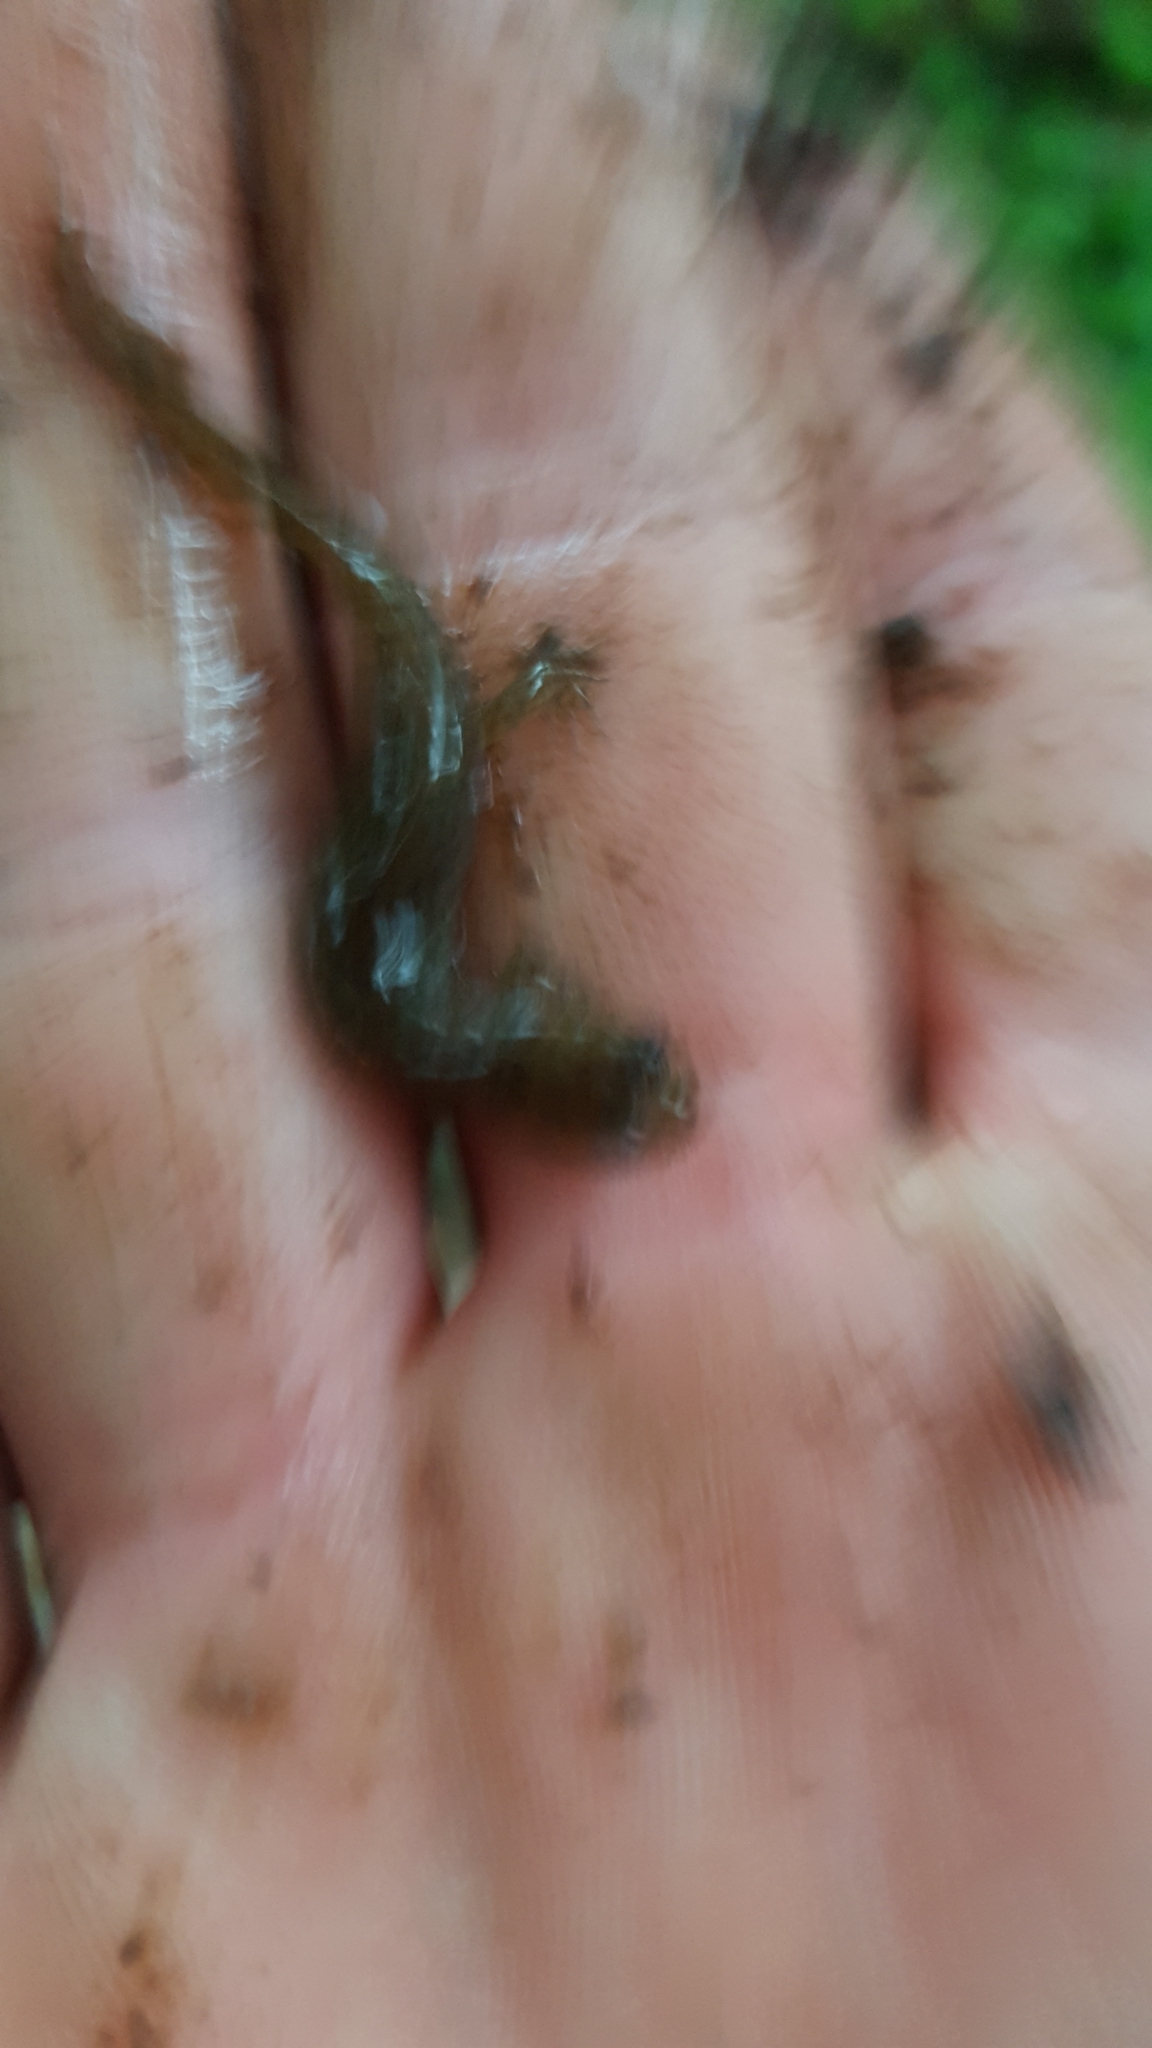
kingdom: Animalia
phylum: Chordata
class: Amphibia
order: Caudata
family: Plethodontidae
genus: Eurycea
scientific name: Eurycea paludicola
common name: Western dwarf salamander
